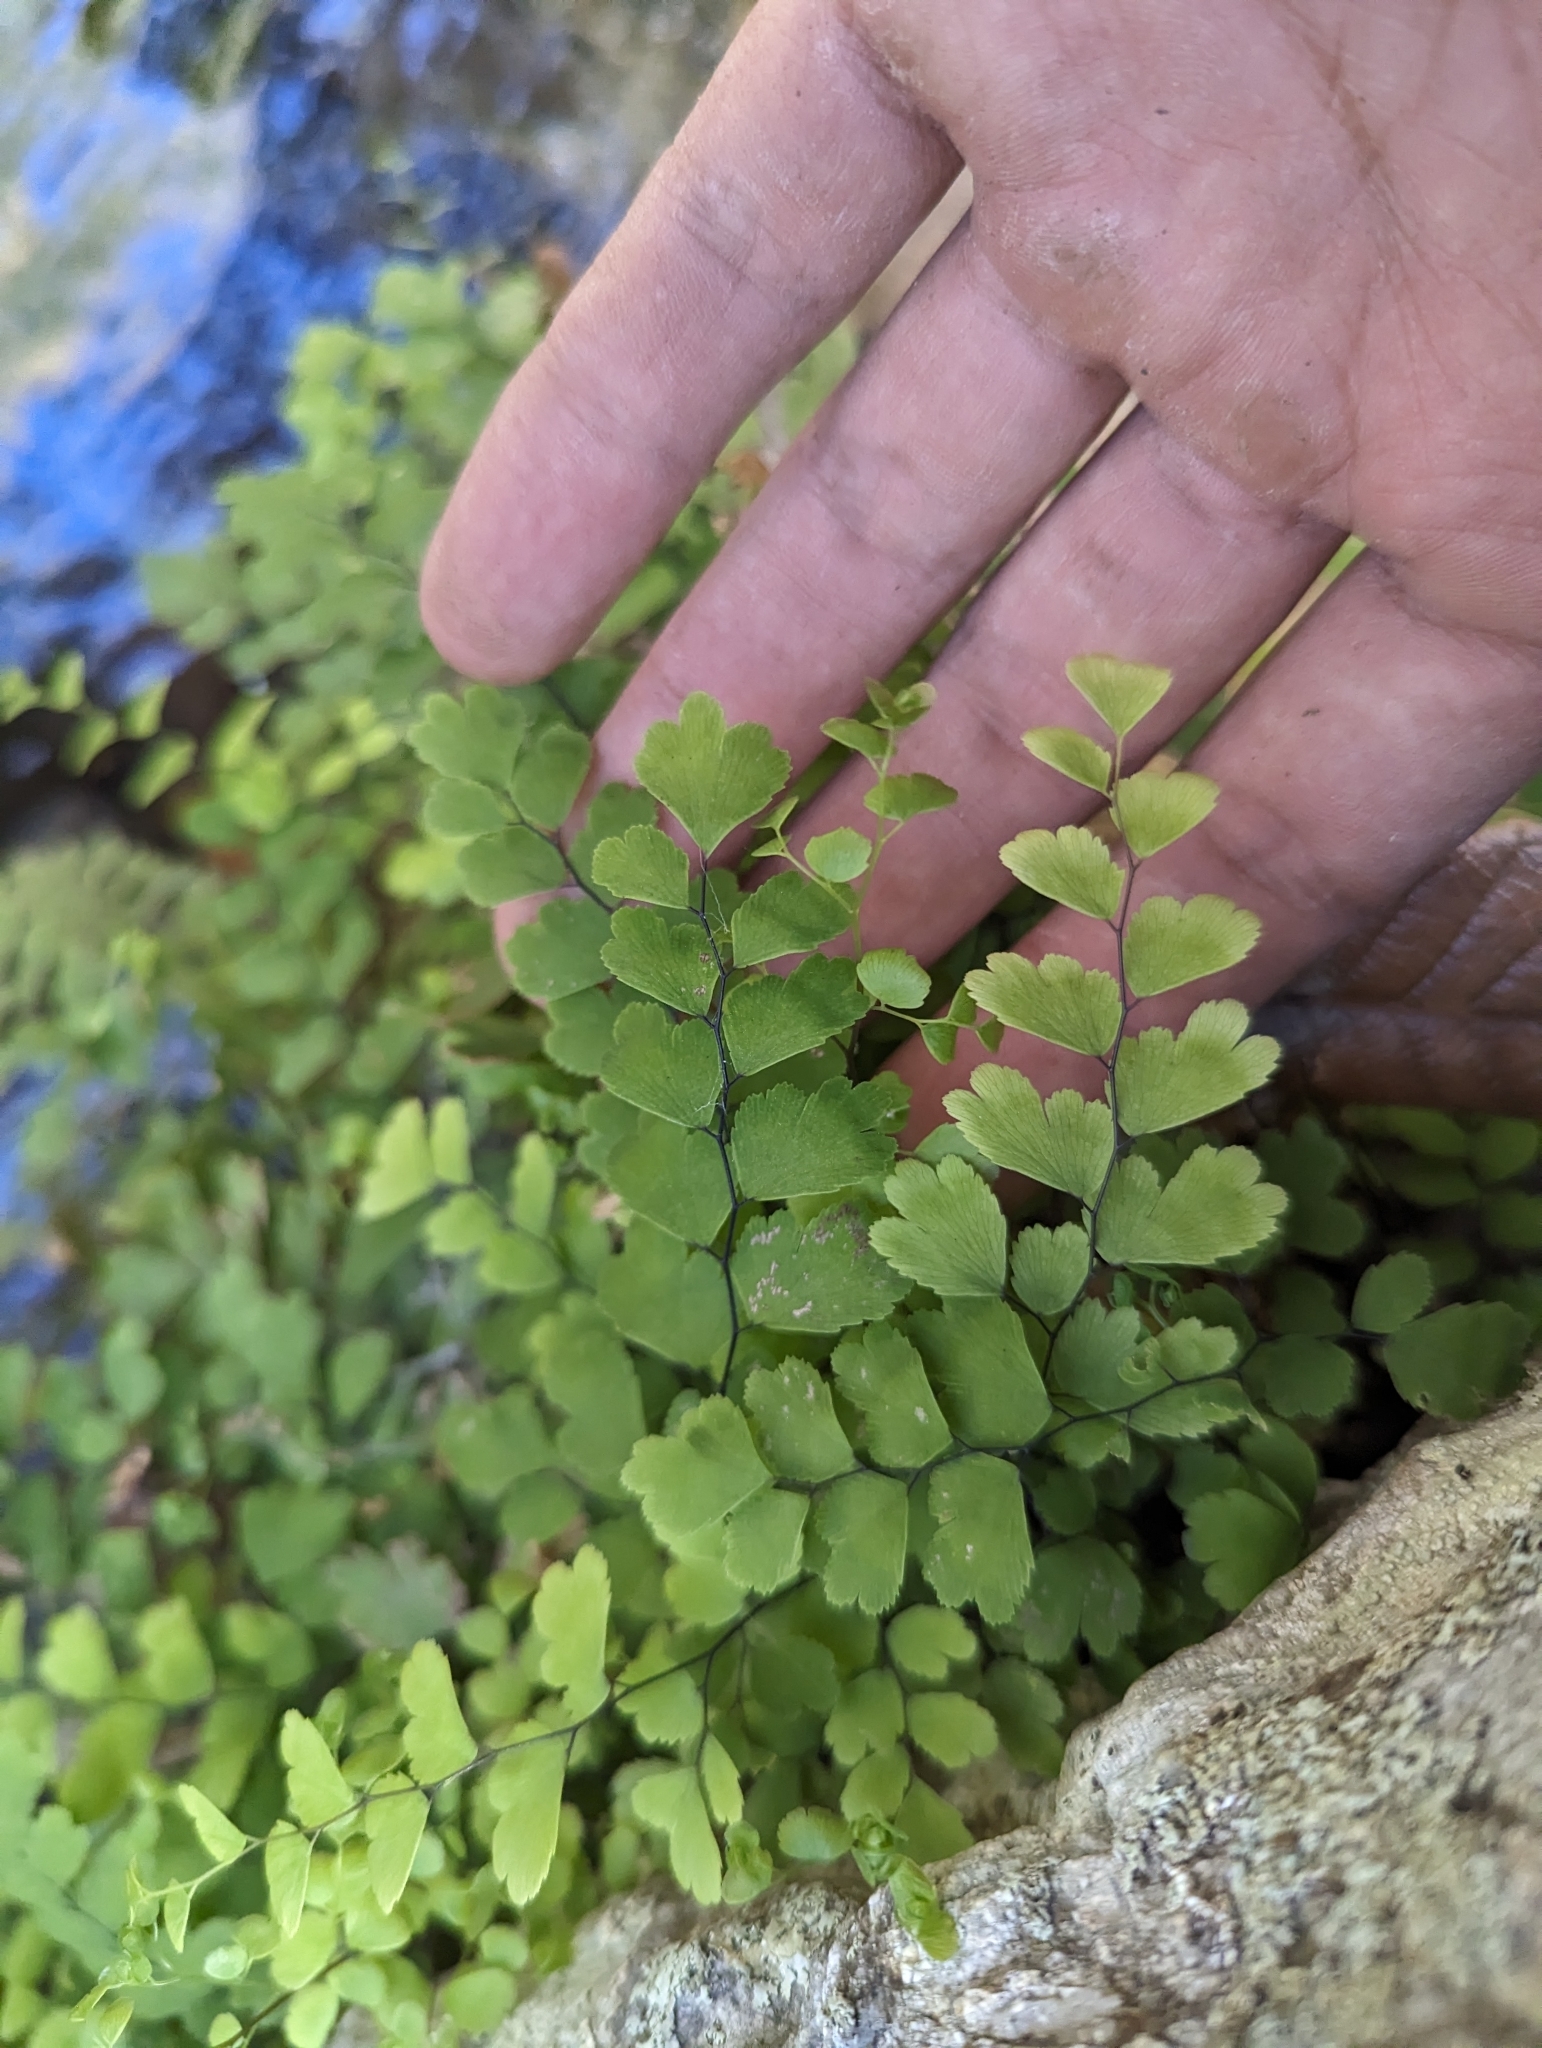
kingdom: Plantae
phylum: Tracheophyta
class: Polypodiopsida
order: Polypodiales
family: Pteridaceae
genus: Adiantum
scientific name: Adiantum capillus-veneris
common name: Maidenhair fern
